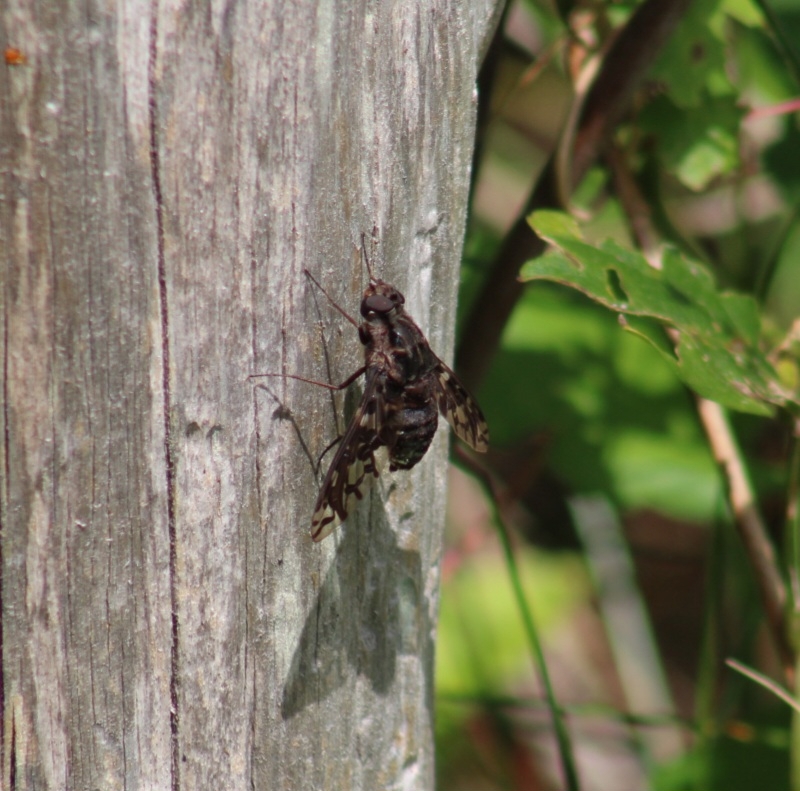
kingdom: Animalia
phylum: Arthropoda
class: Insecta
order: Diptera
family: Bombyliidae
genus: Xenox
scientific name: Xenox tigrinus
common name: Tiger bee fly
